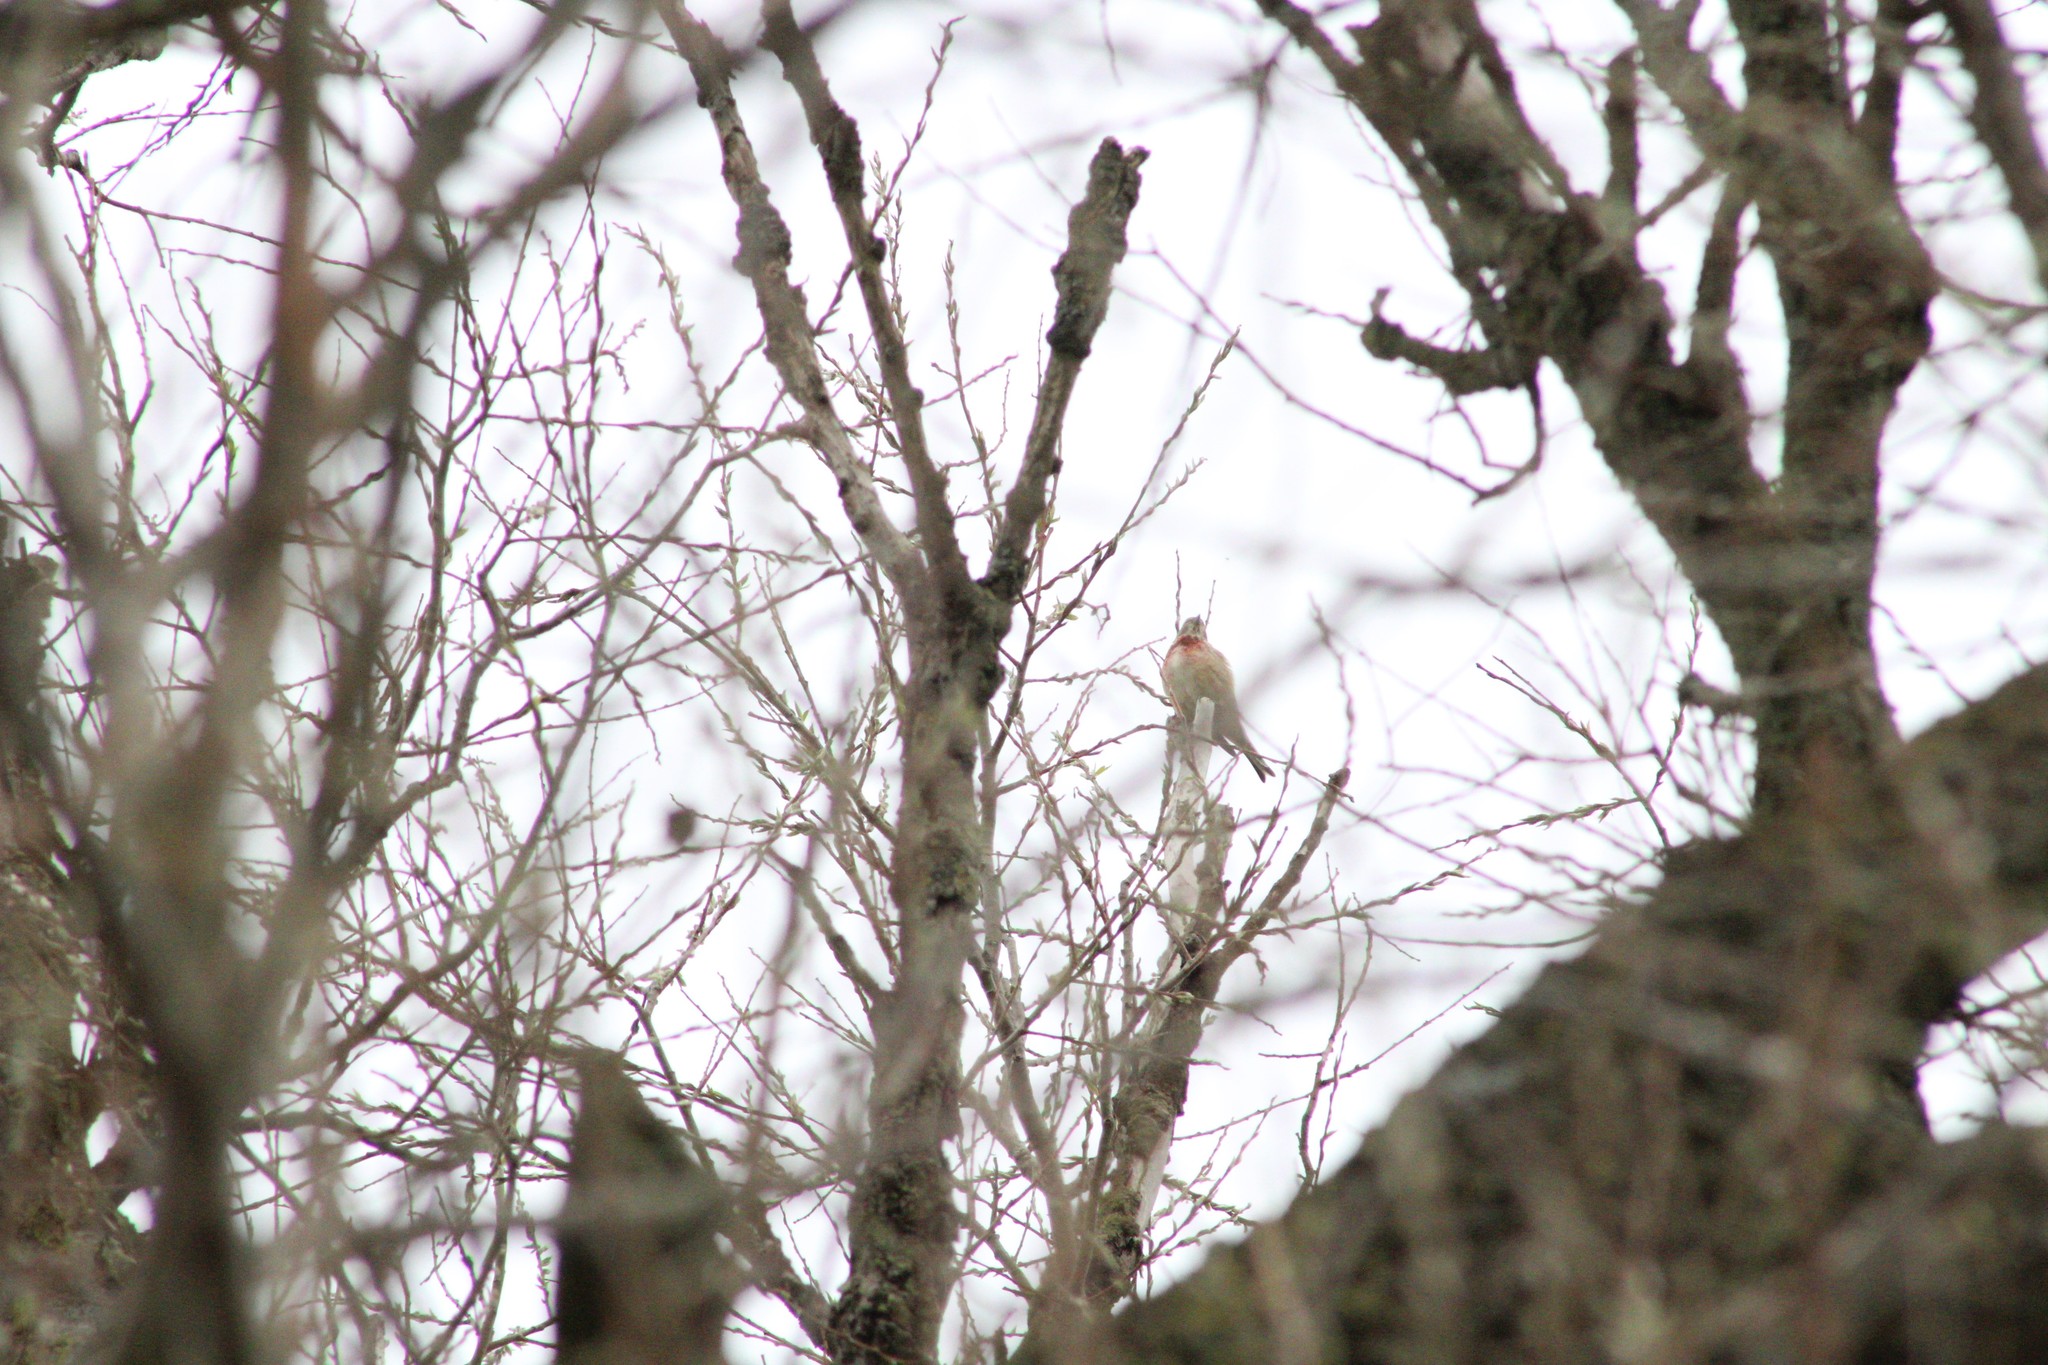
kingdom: Animalia
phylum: Chordata
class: Aves
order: Passeriformes
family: Fringillidae
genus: Linaria
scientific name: Linaria cannabina
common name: Common linnet
